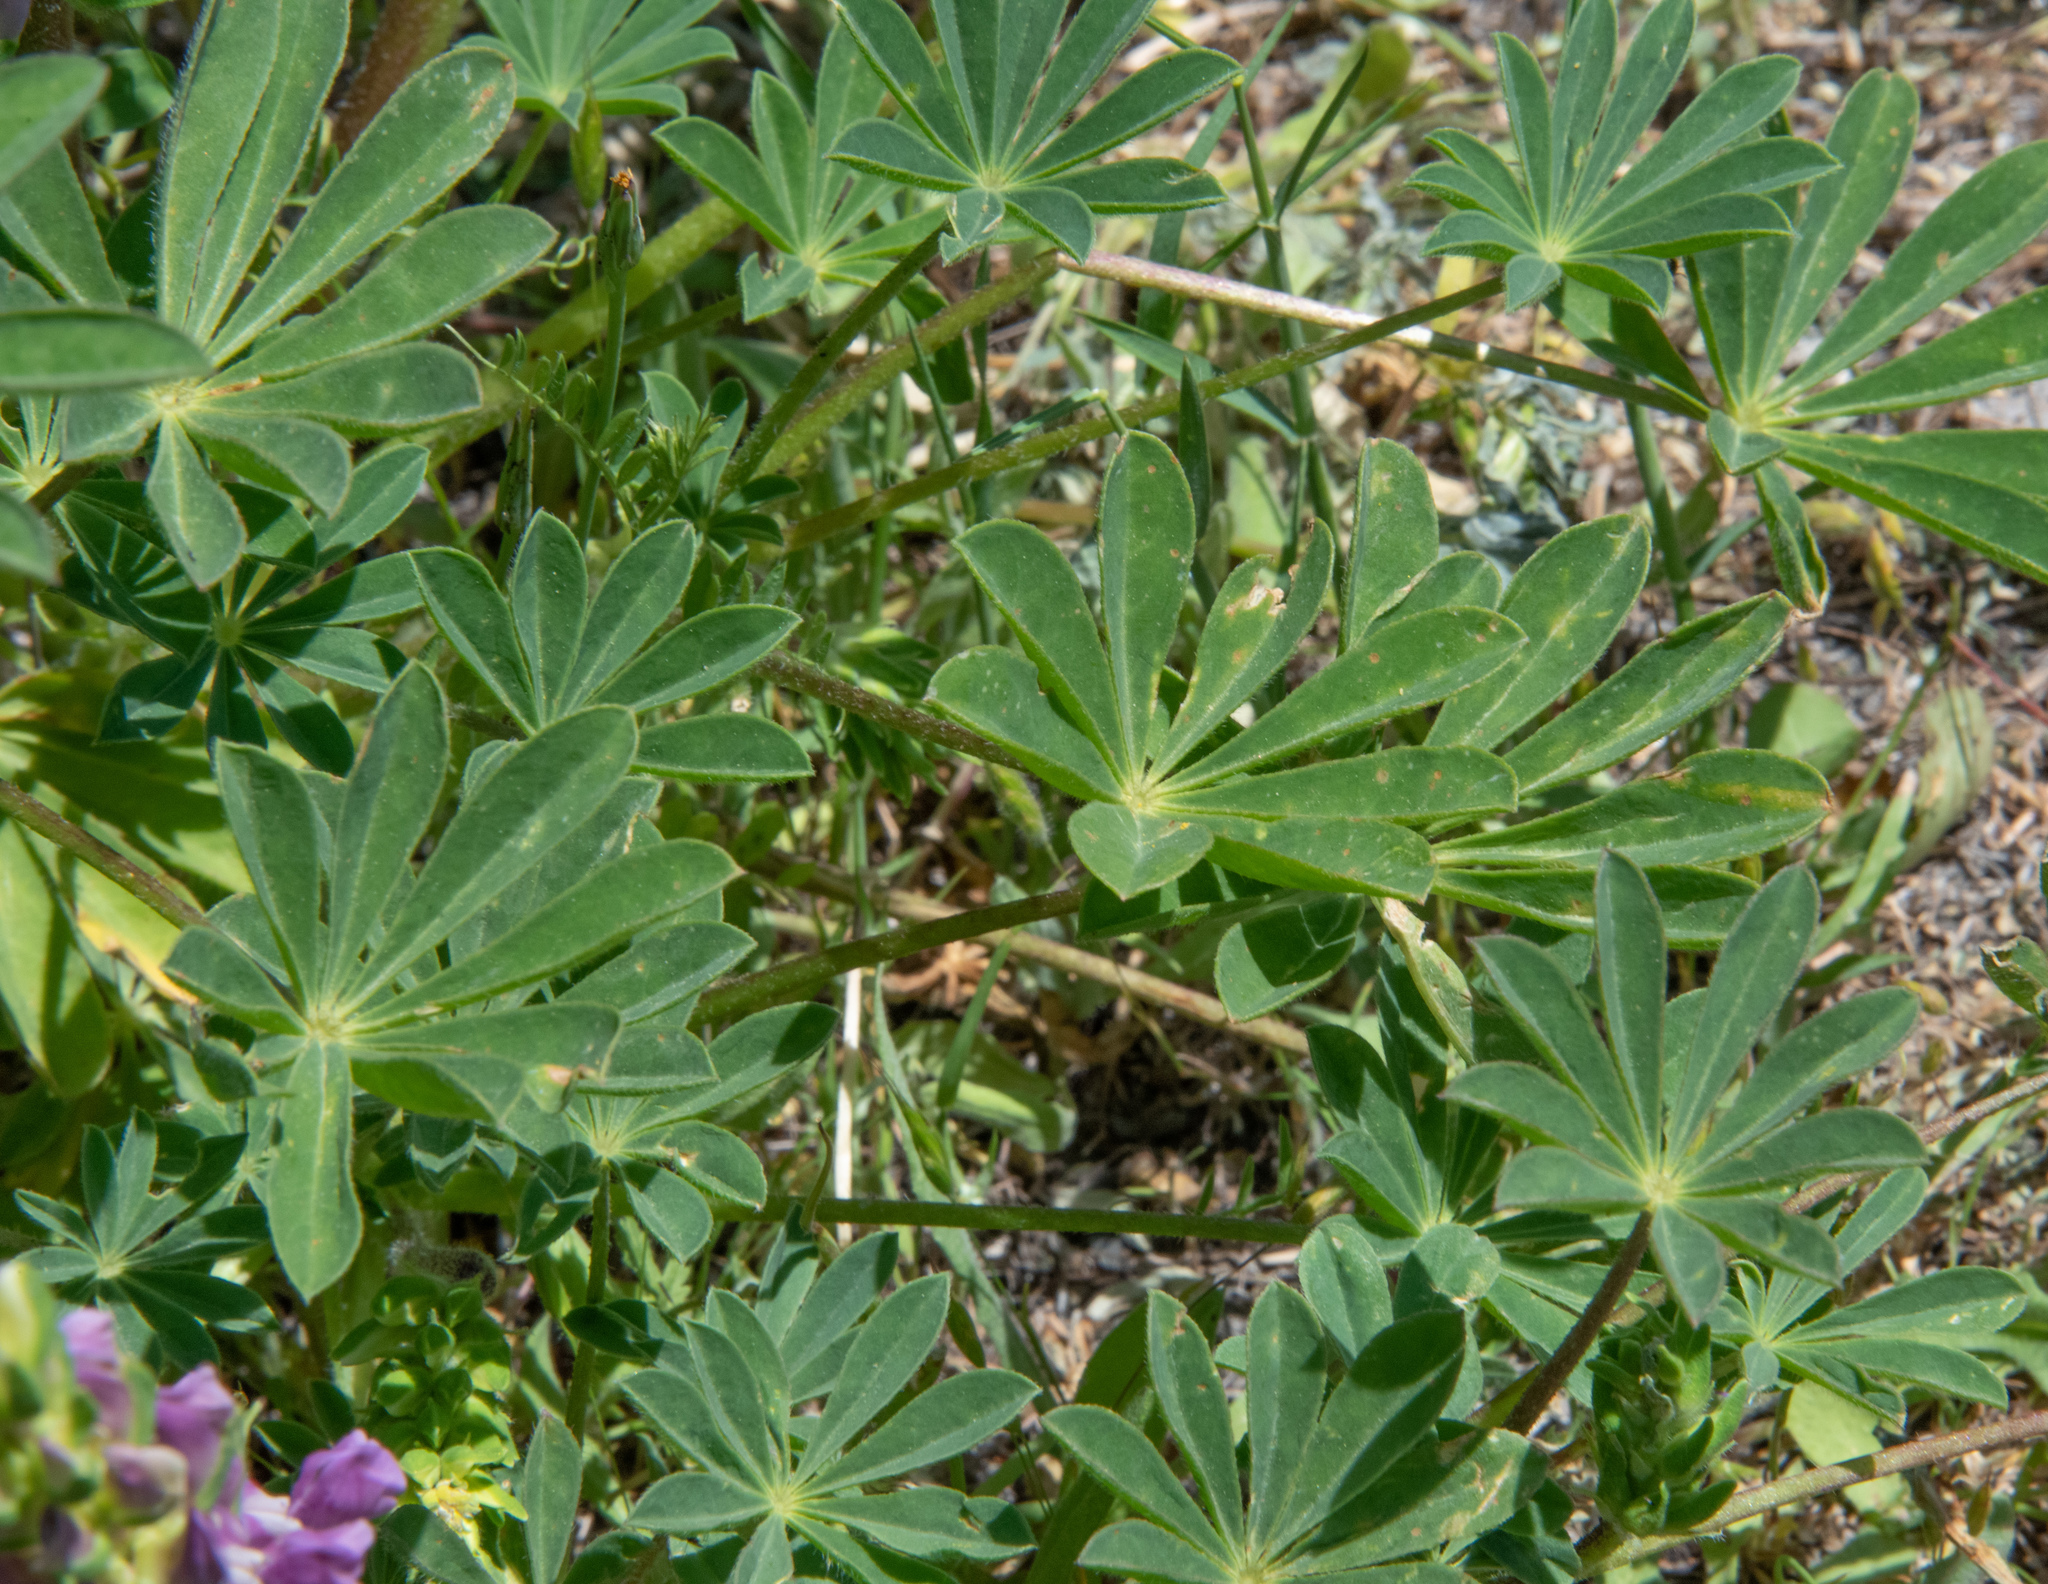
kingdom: Plantae
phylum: Tracheophyta
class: Magnoliopsida
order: Fabales
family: Fabaceae
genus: Lupinus
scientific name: Lupinus microcarpus
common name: Chick lupine
